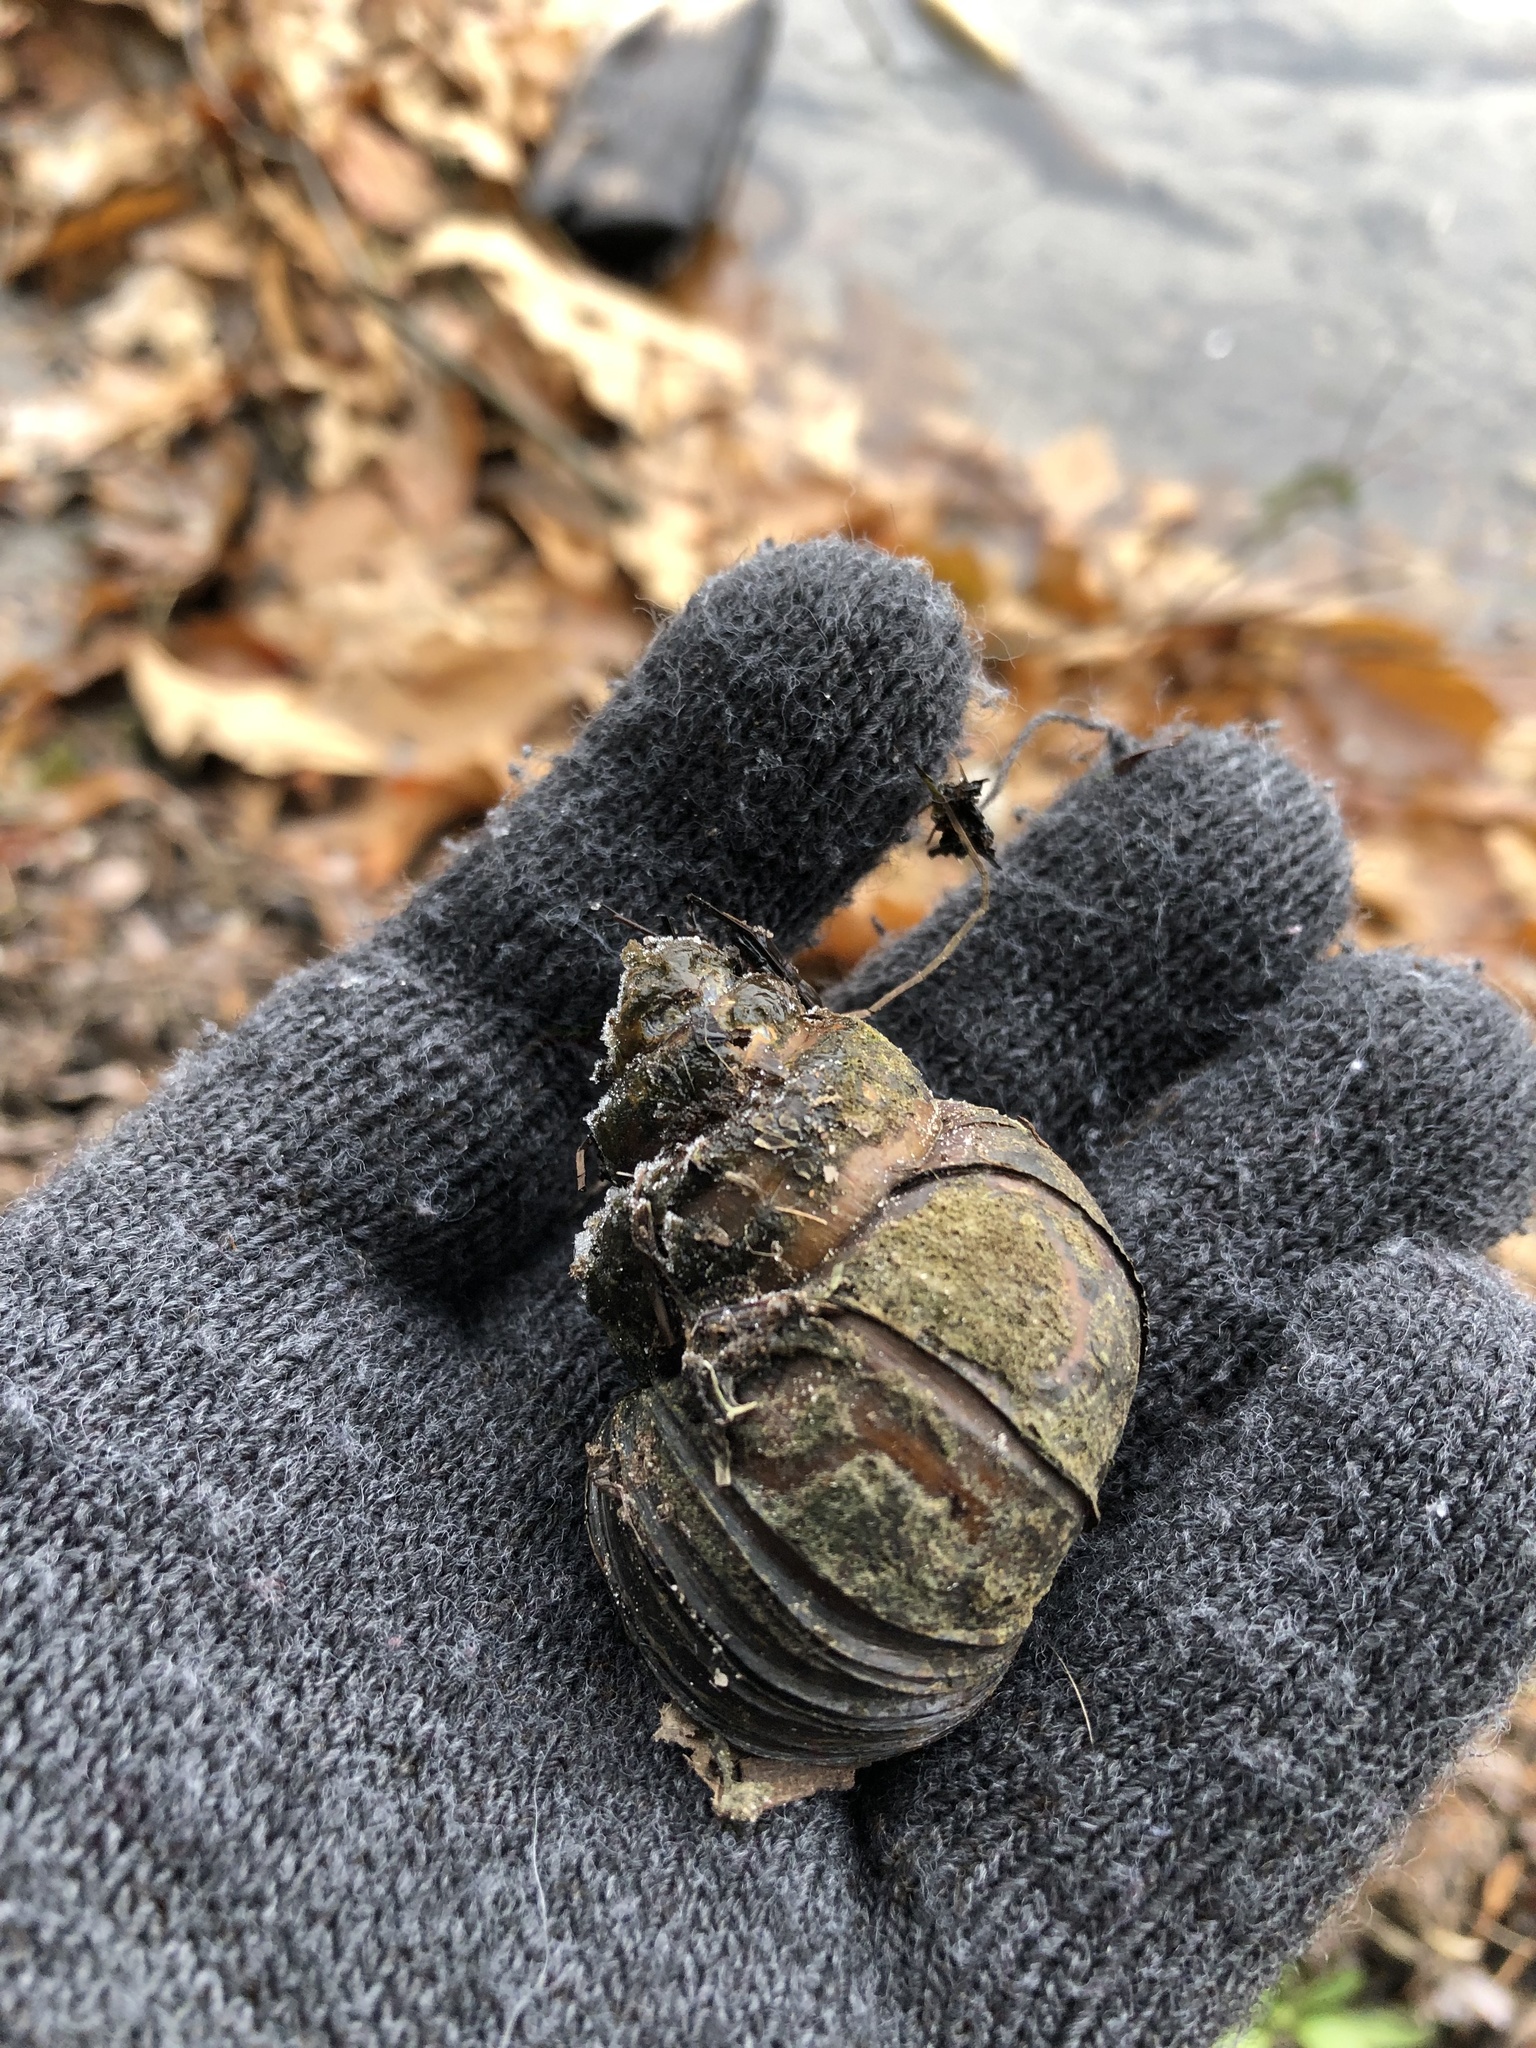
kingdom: Animalia
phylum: Mollusca
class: Gastropoda
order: Architaenioglossa
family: Viviparidae
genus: Cipangopaludina
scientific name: Cipangopaludina chinensis
